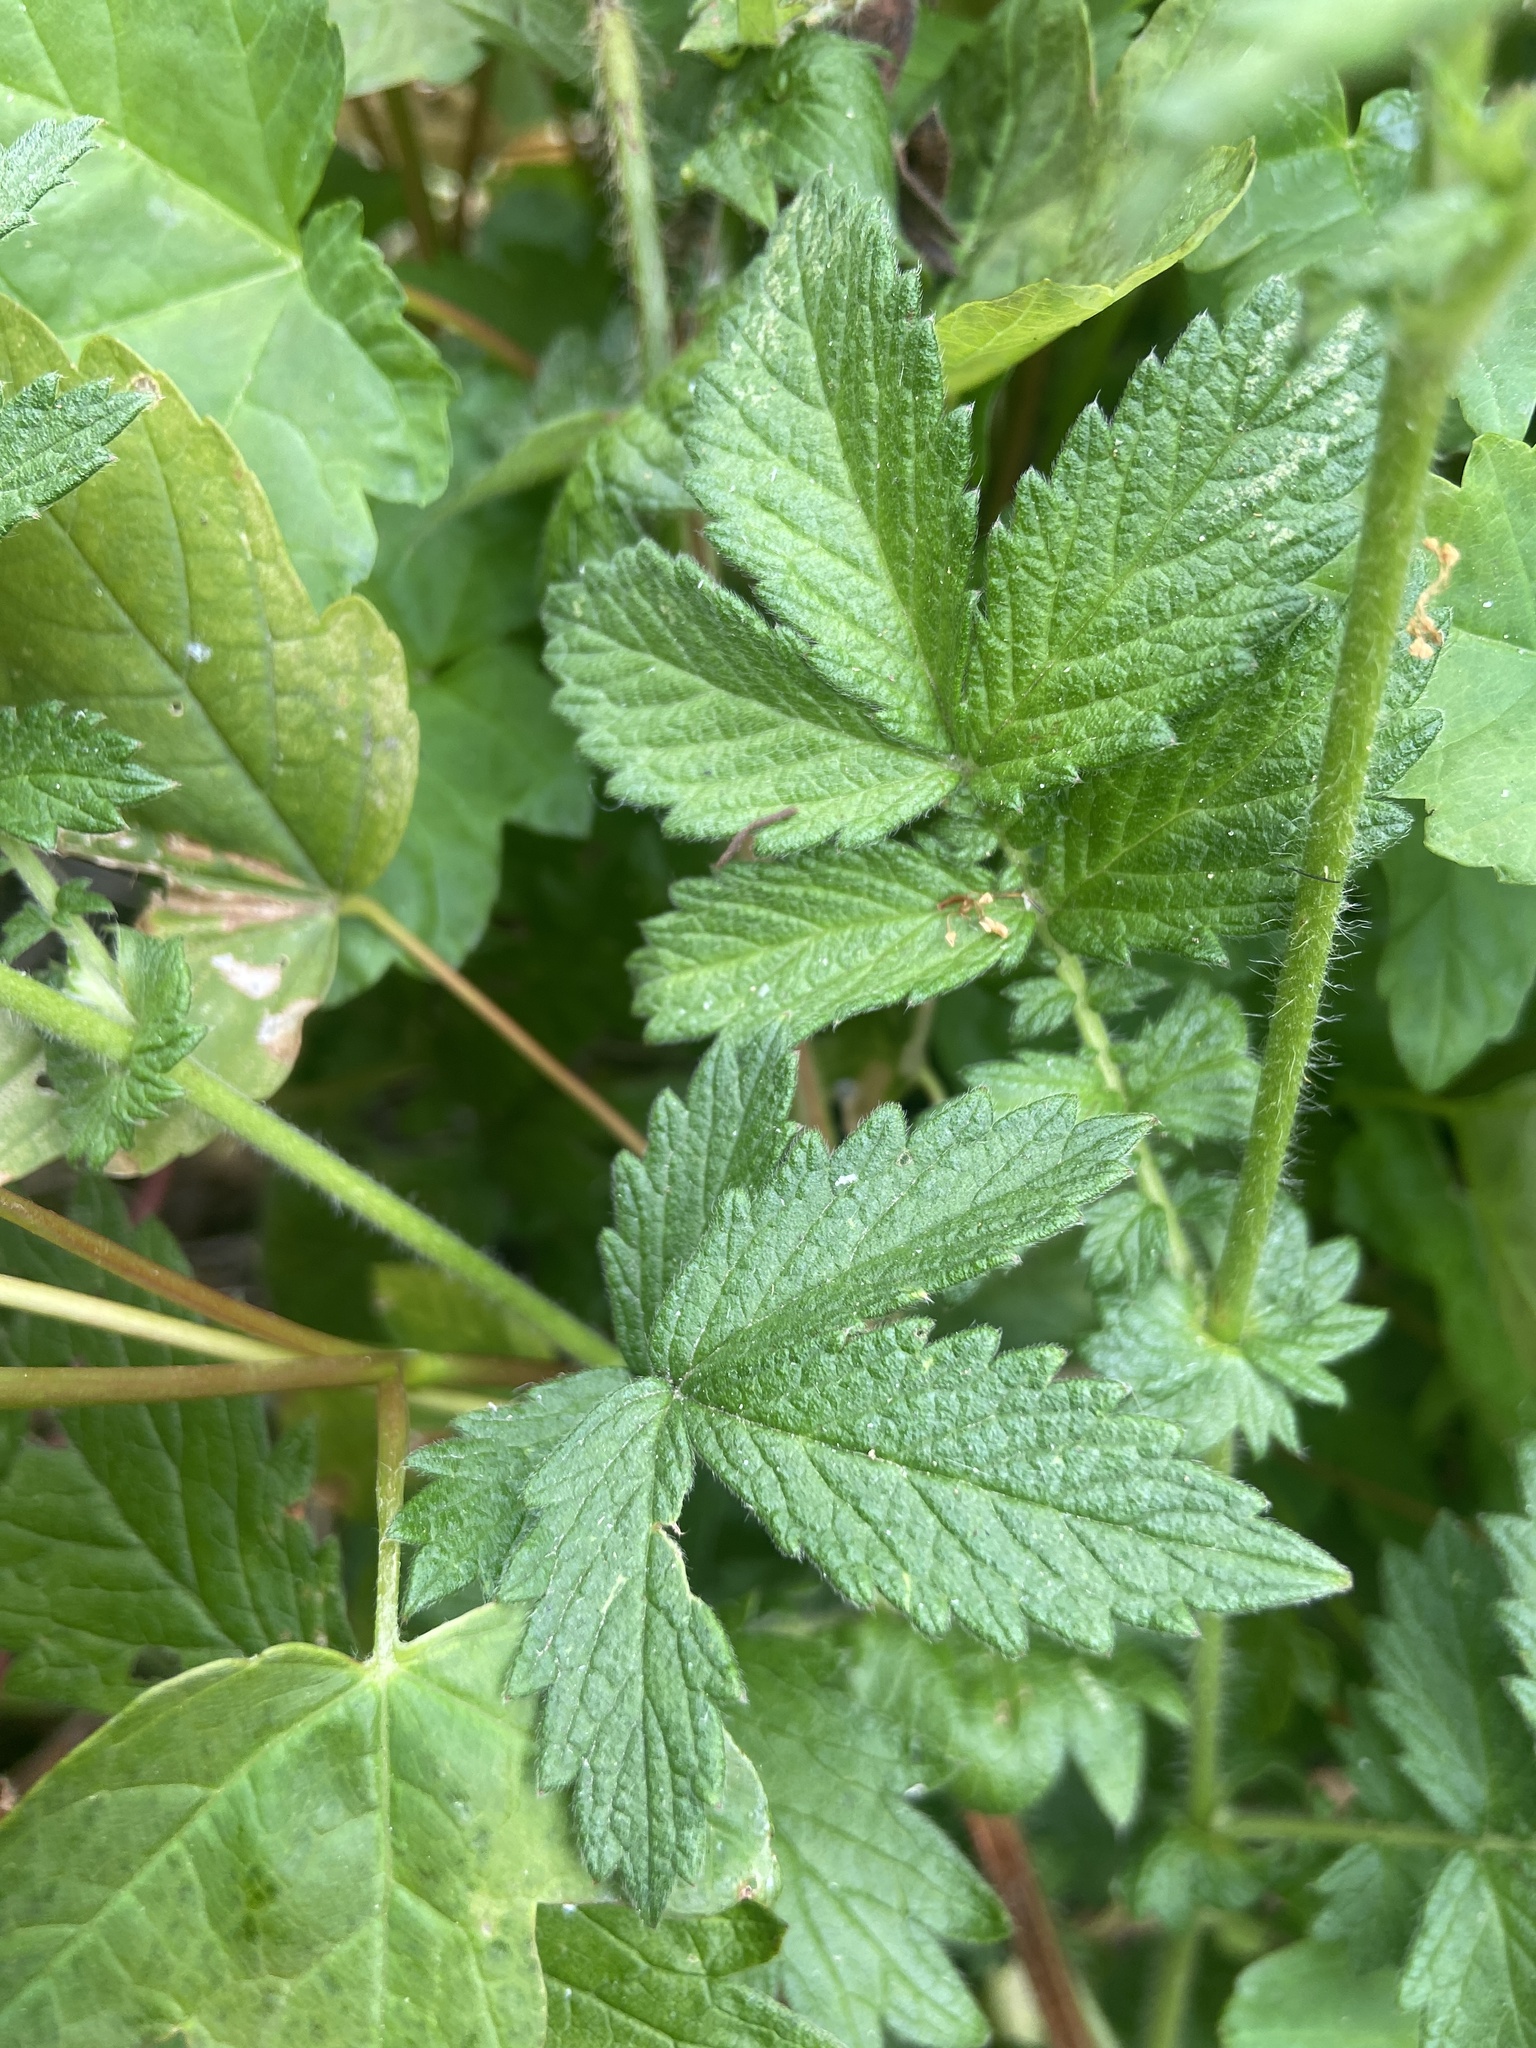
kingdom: Plantae
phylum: Tracheophyta
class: Magnoliopsida
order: Rosales
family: Rosaceae
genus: Agrimonia
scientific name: Agrimonia eupatoria
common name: Agrimony
